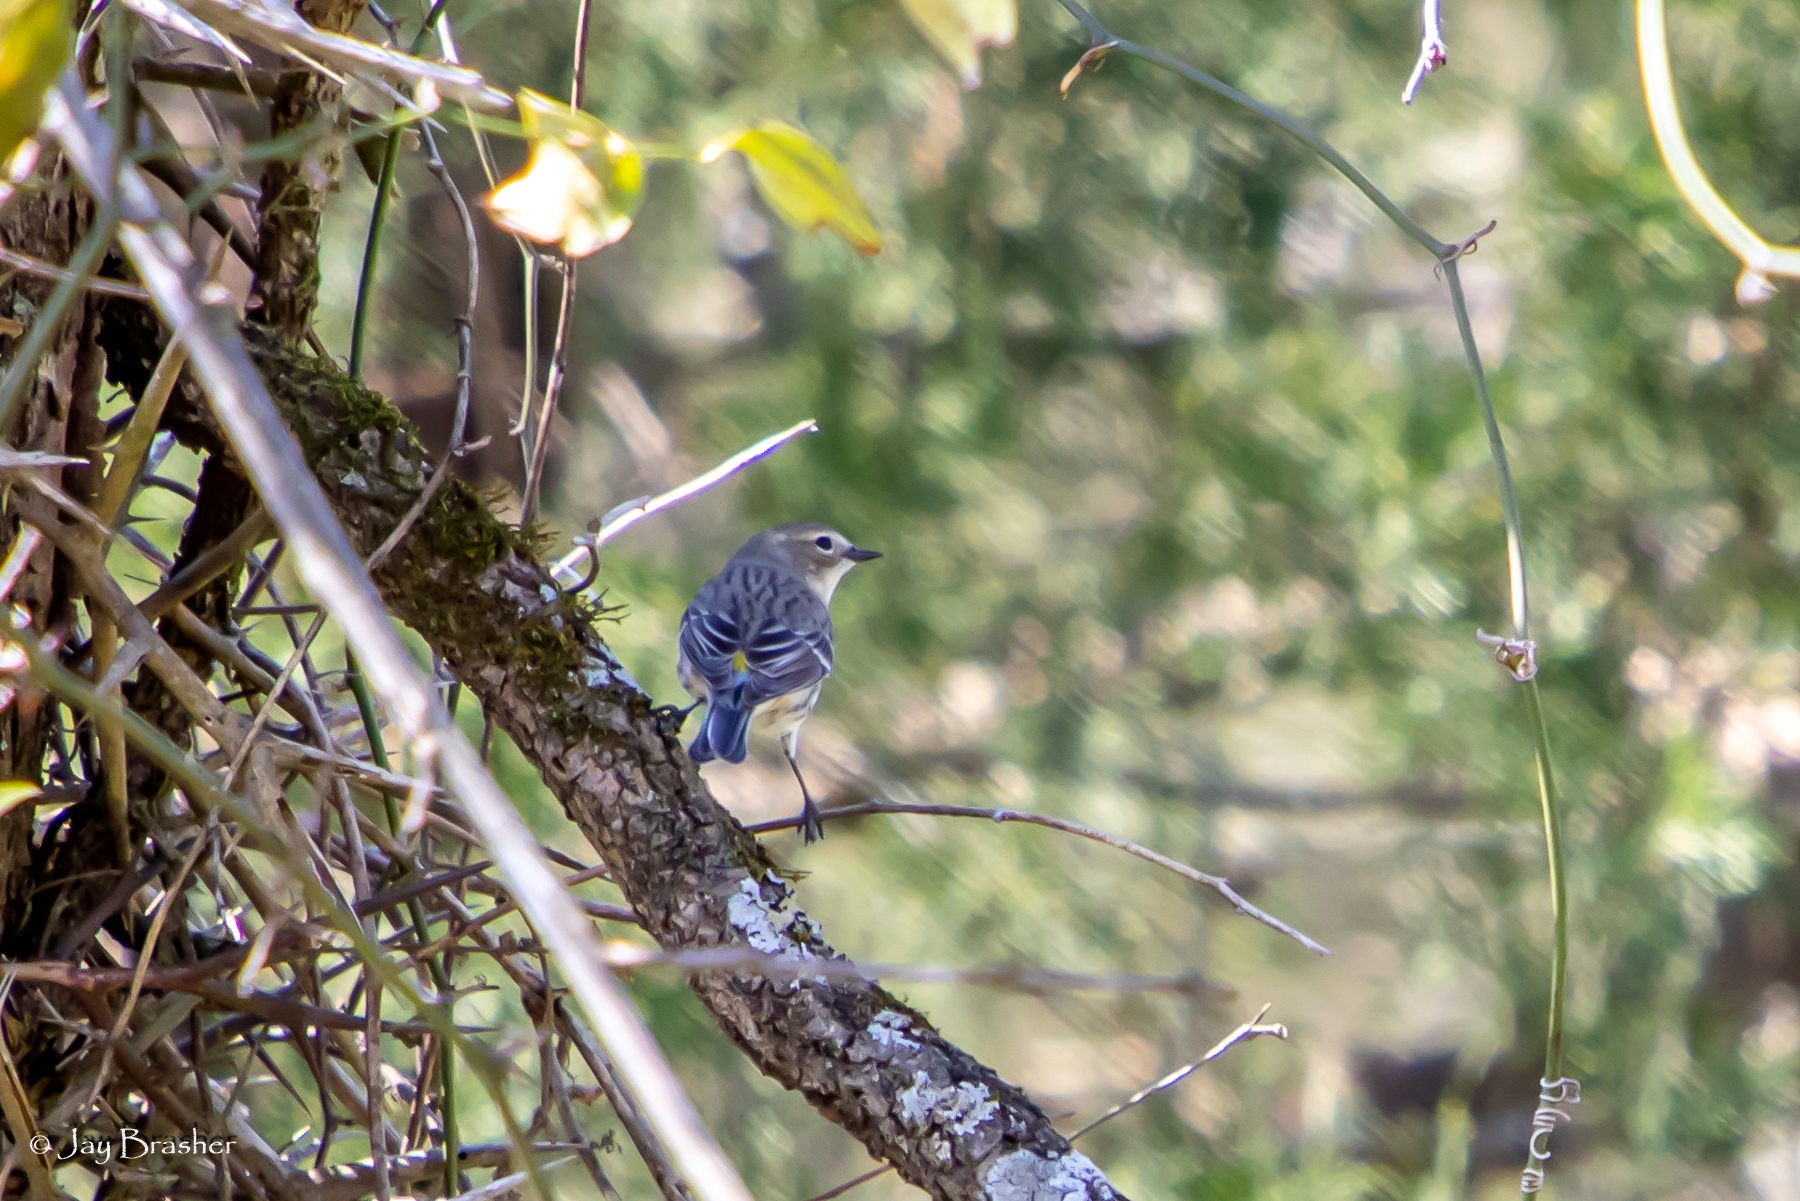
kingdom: Animalia
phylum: Chordata
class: Aves
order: Passeriformes
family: Parulidae
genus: Setophaga
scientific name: Setophaga coronata
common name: Myrtle warbler
